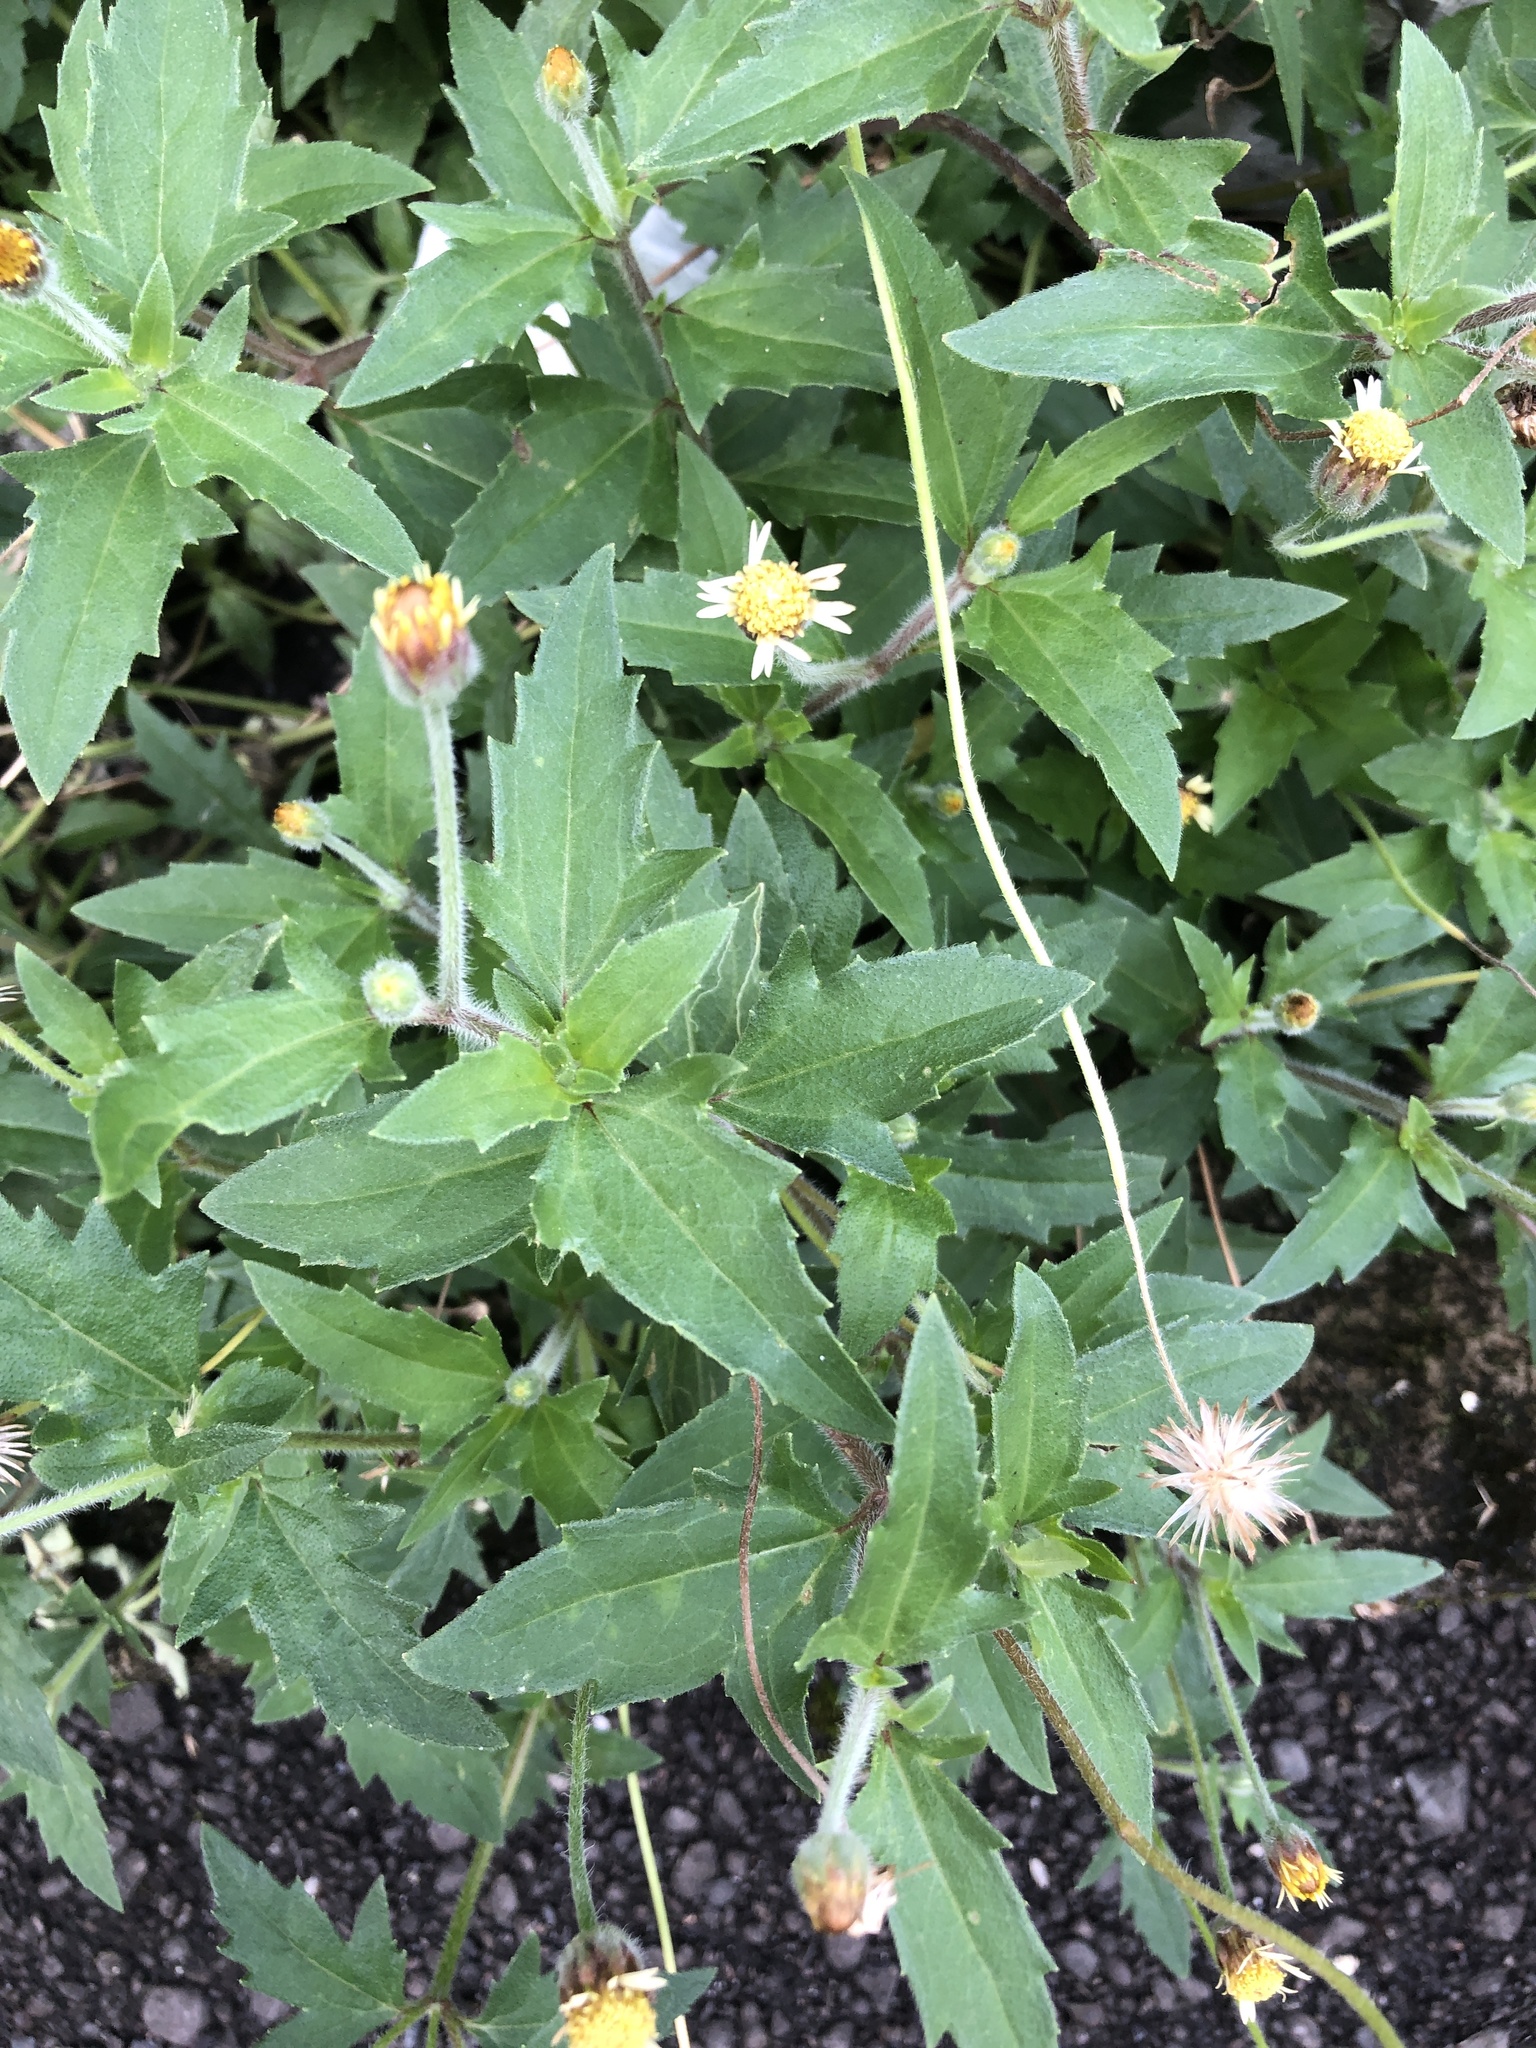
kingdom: Plantae
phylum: Tracheophyta
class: Magnoliopsida
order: Asterales
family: Asteraceae
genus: Tridax
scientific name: Tridax procumbens
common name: Coatbuttons
